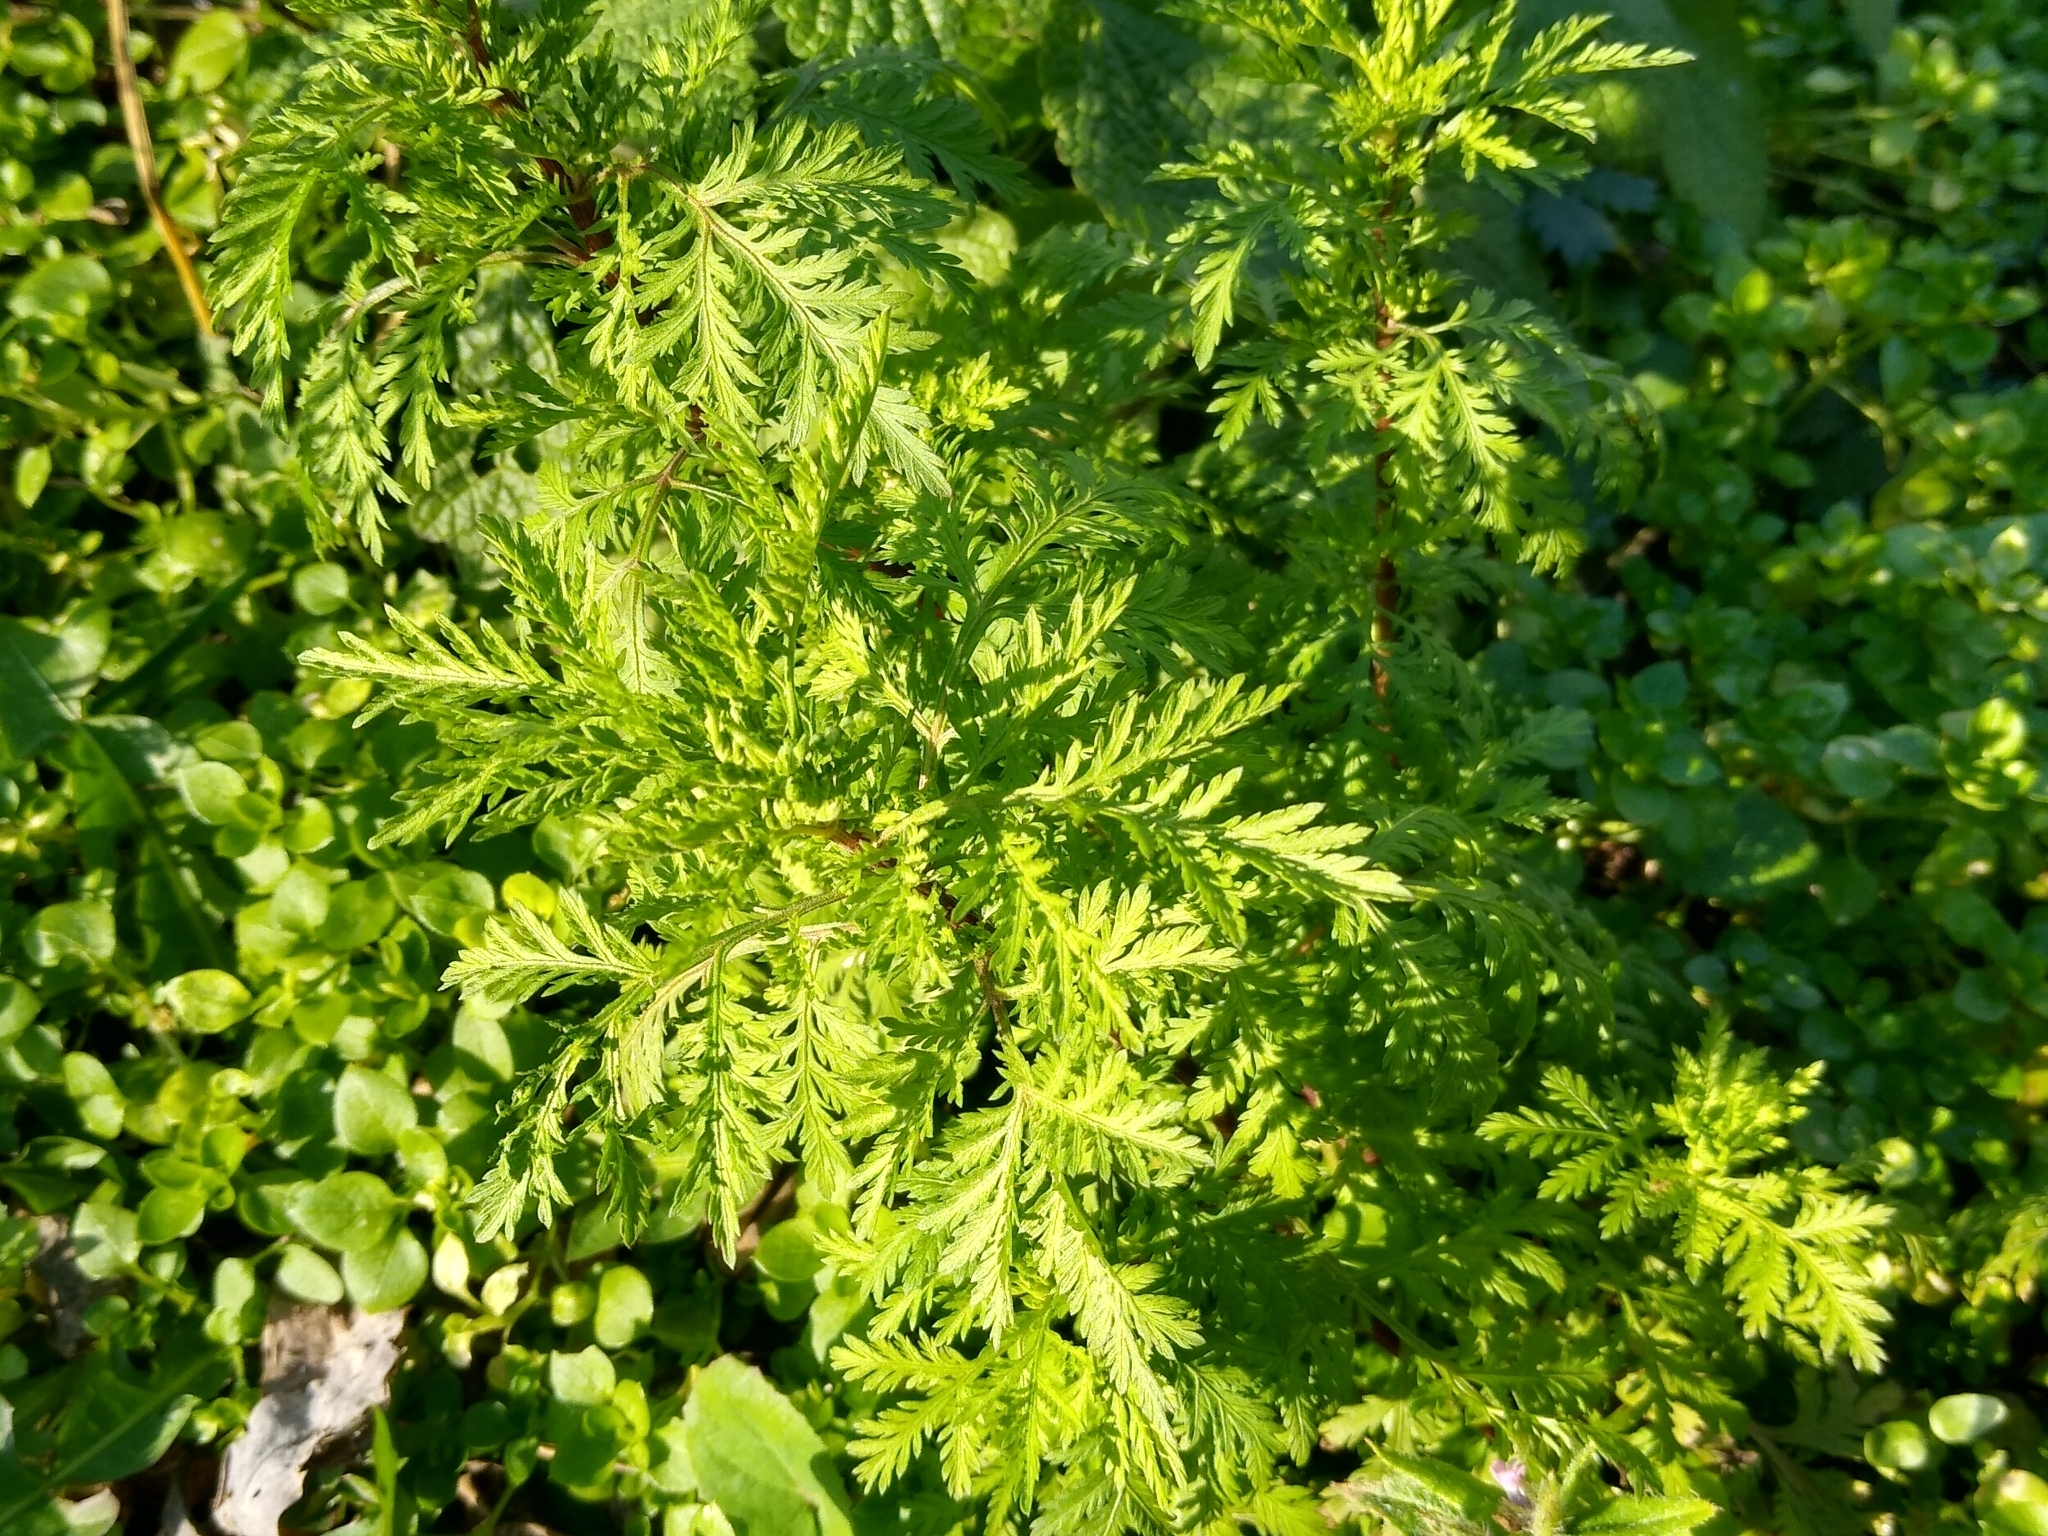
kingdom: Plantae
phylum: Tracheophyta
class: Magnoliopsida
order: Asterales
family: Asteraceae
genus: Artemisia
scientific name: Artemisia annua
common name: Sweet sagewort
